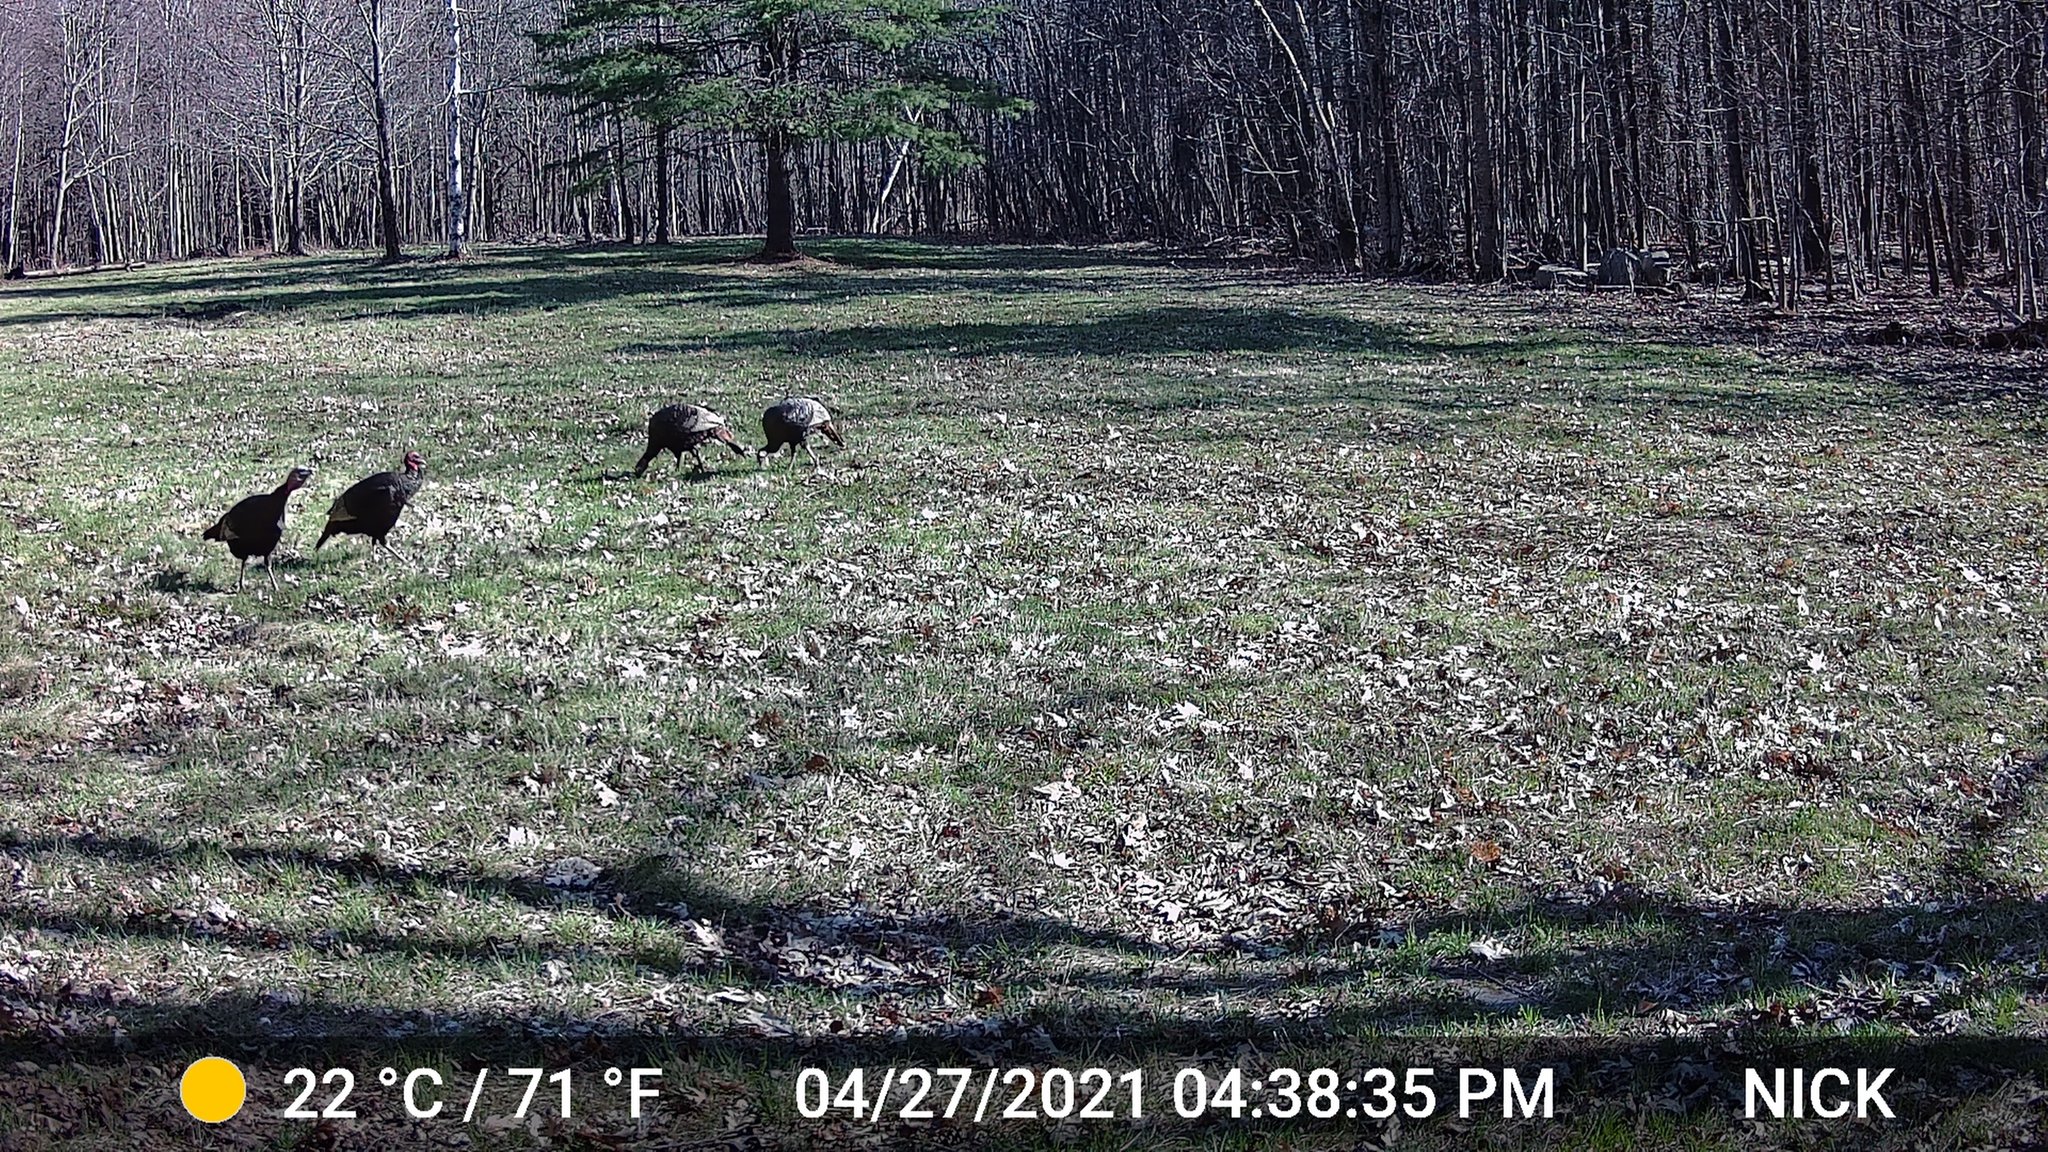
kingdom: Animalia
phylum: Chordata
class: Aves
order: Galliformes
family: Phasianidae
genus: Meleagris
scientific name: Meleagris gallopavo
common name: Wild turkey
